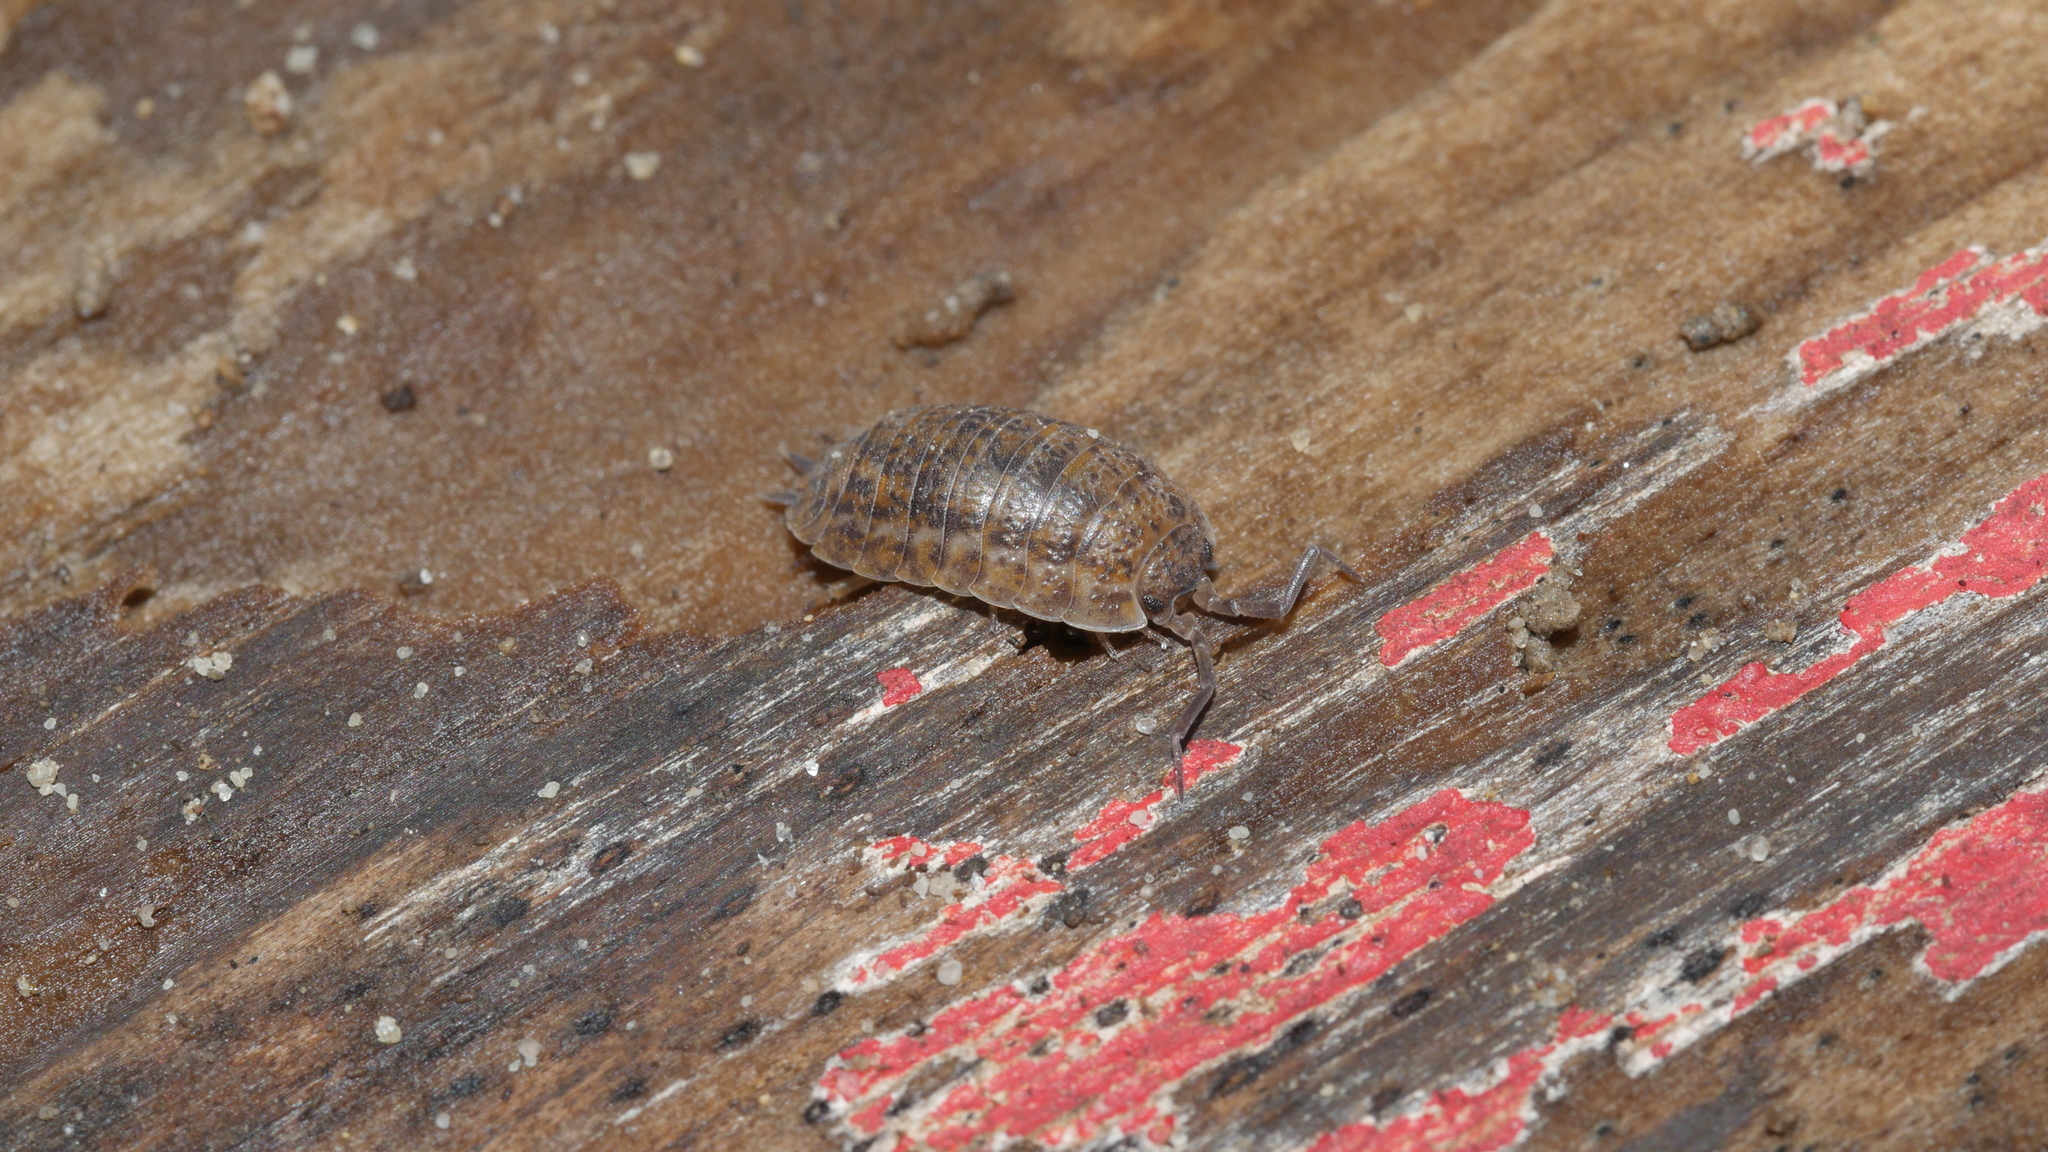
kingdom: Animalia
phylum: Arthropoda
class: Malacostraca
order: Isopoda
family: Trachelipodidae
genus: Trachelipus
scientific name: Trachelipus rathkii
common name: Isopod
